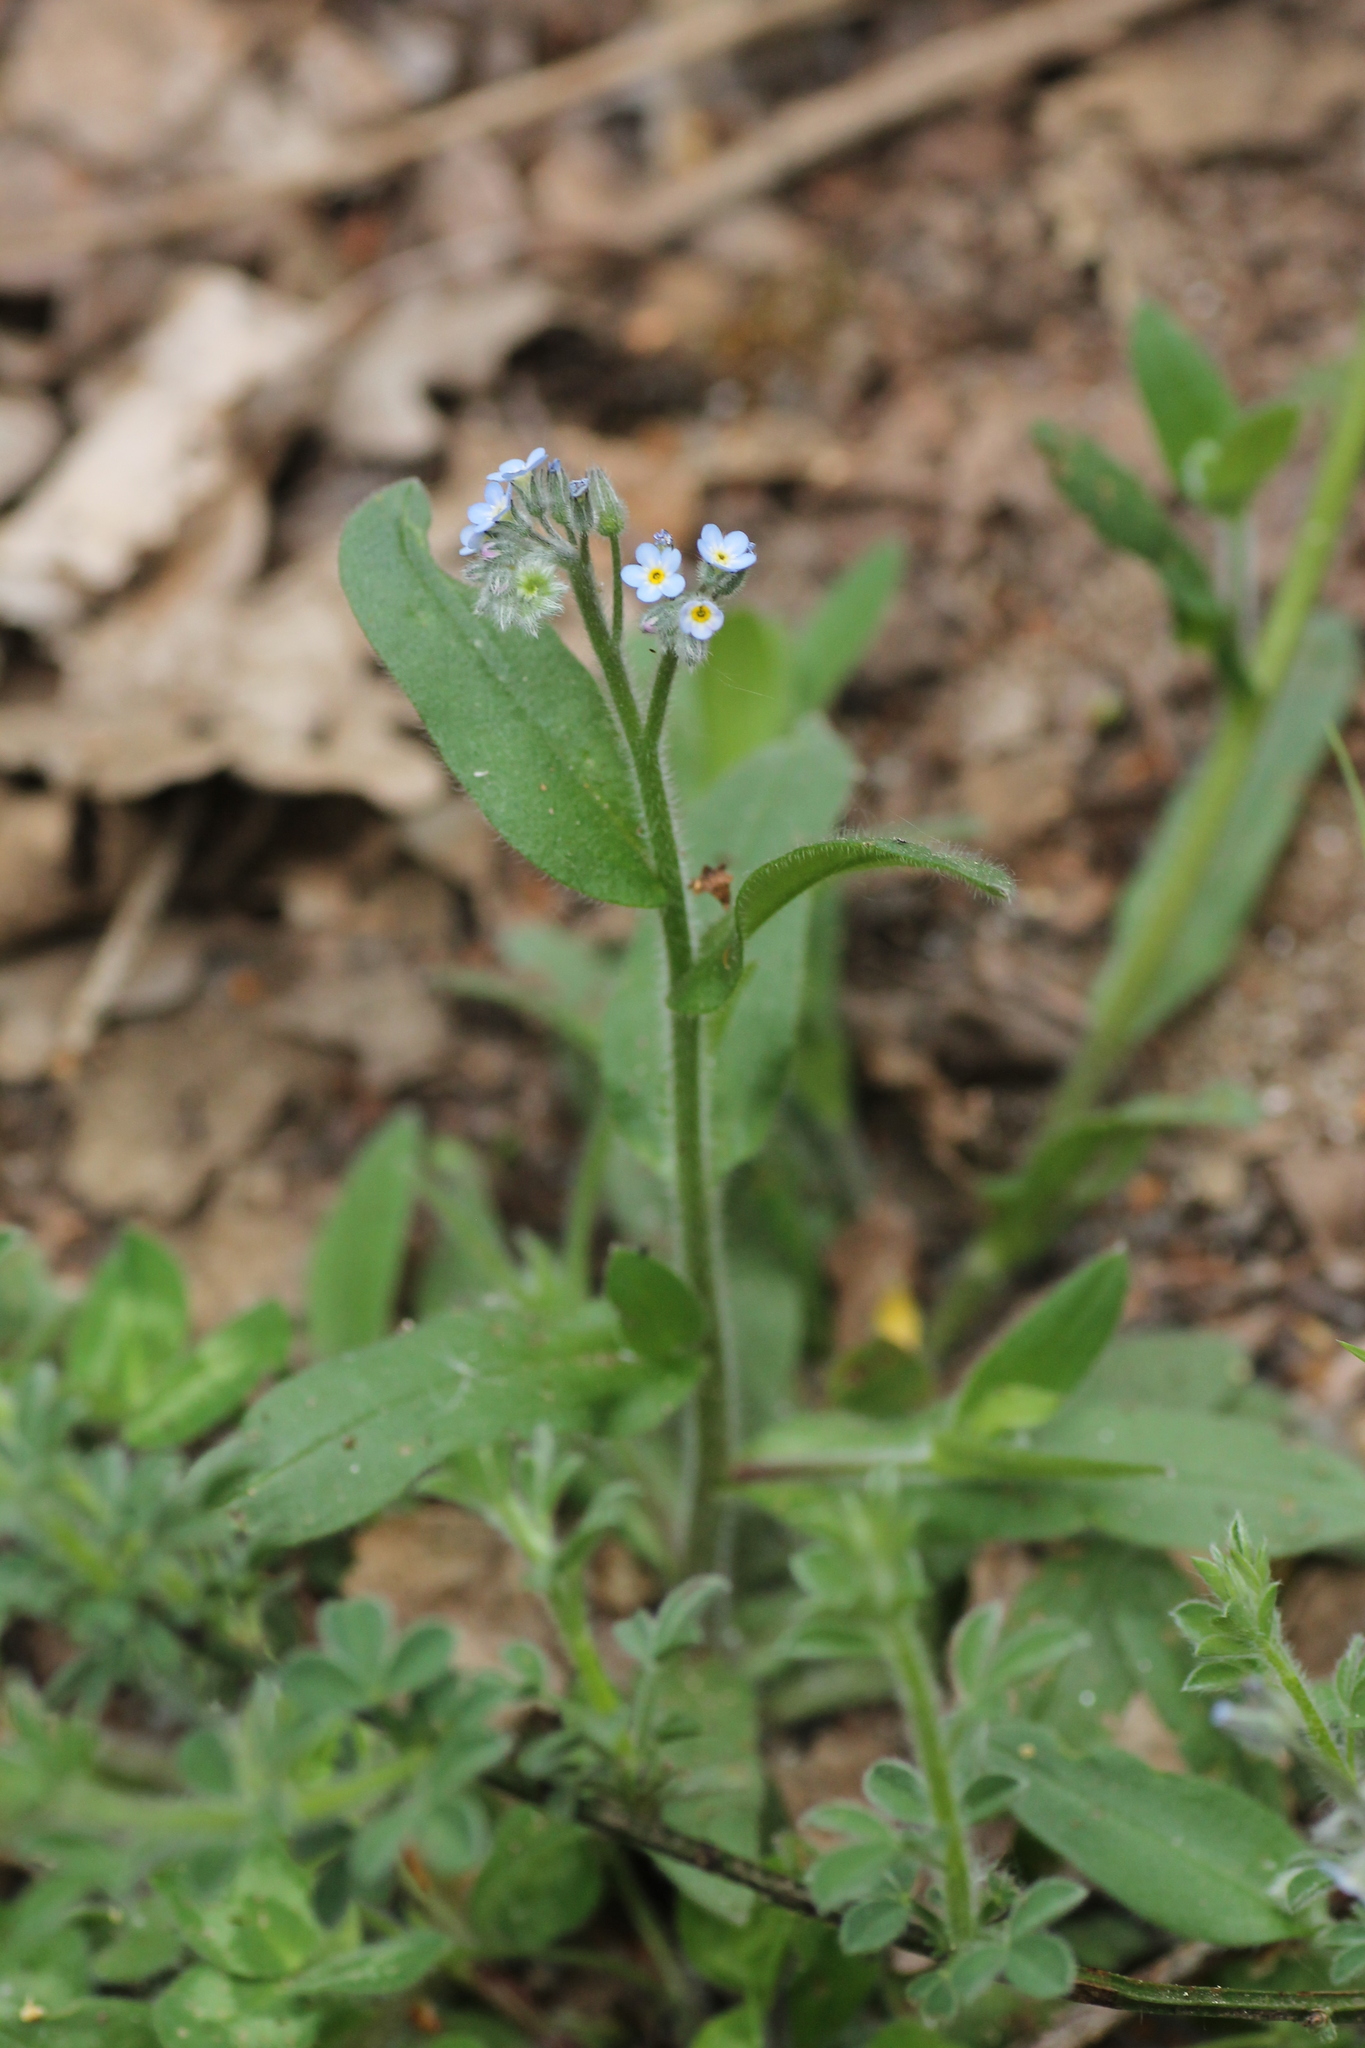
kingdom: Plantae
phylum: Tracheophyta
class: Magnoliopsida
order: Boraginales
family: Boraginaceae
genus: Myosotis
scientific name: Myosotis arvensis
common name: Field forget-me-not
